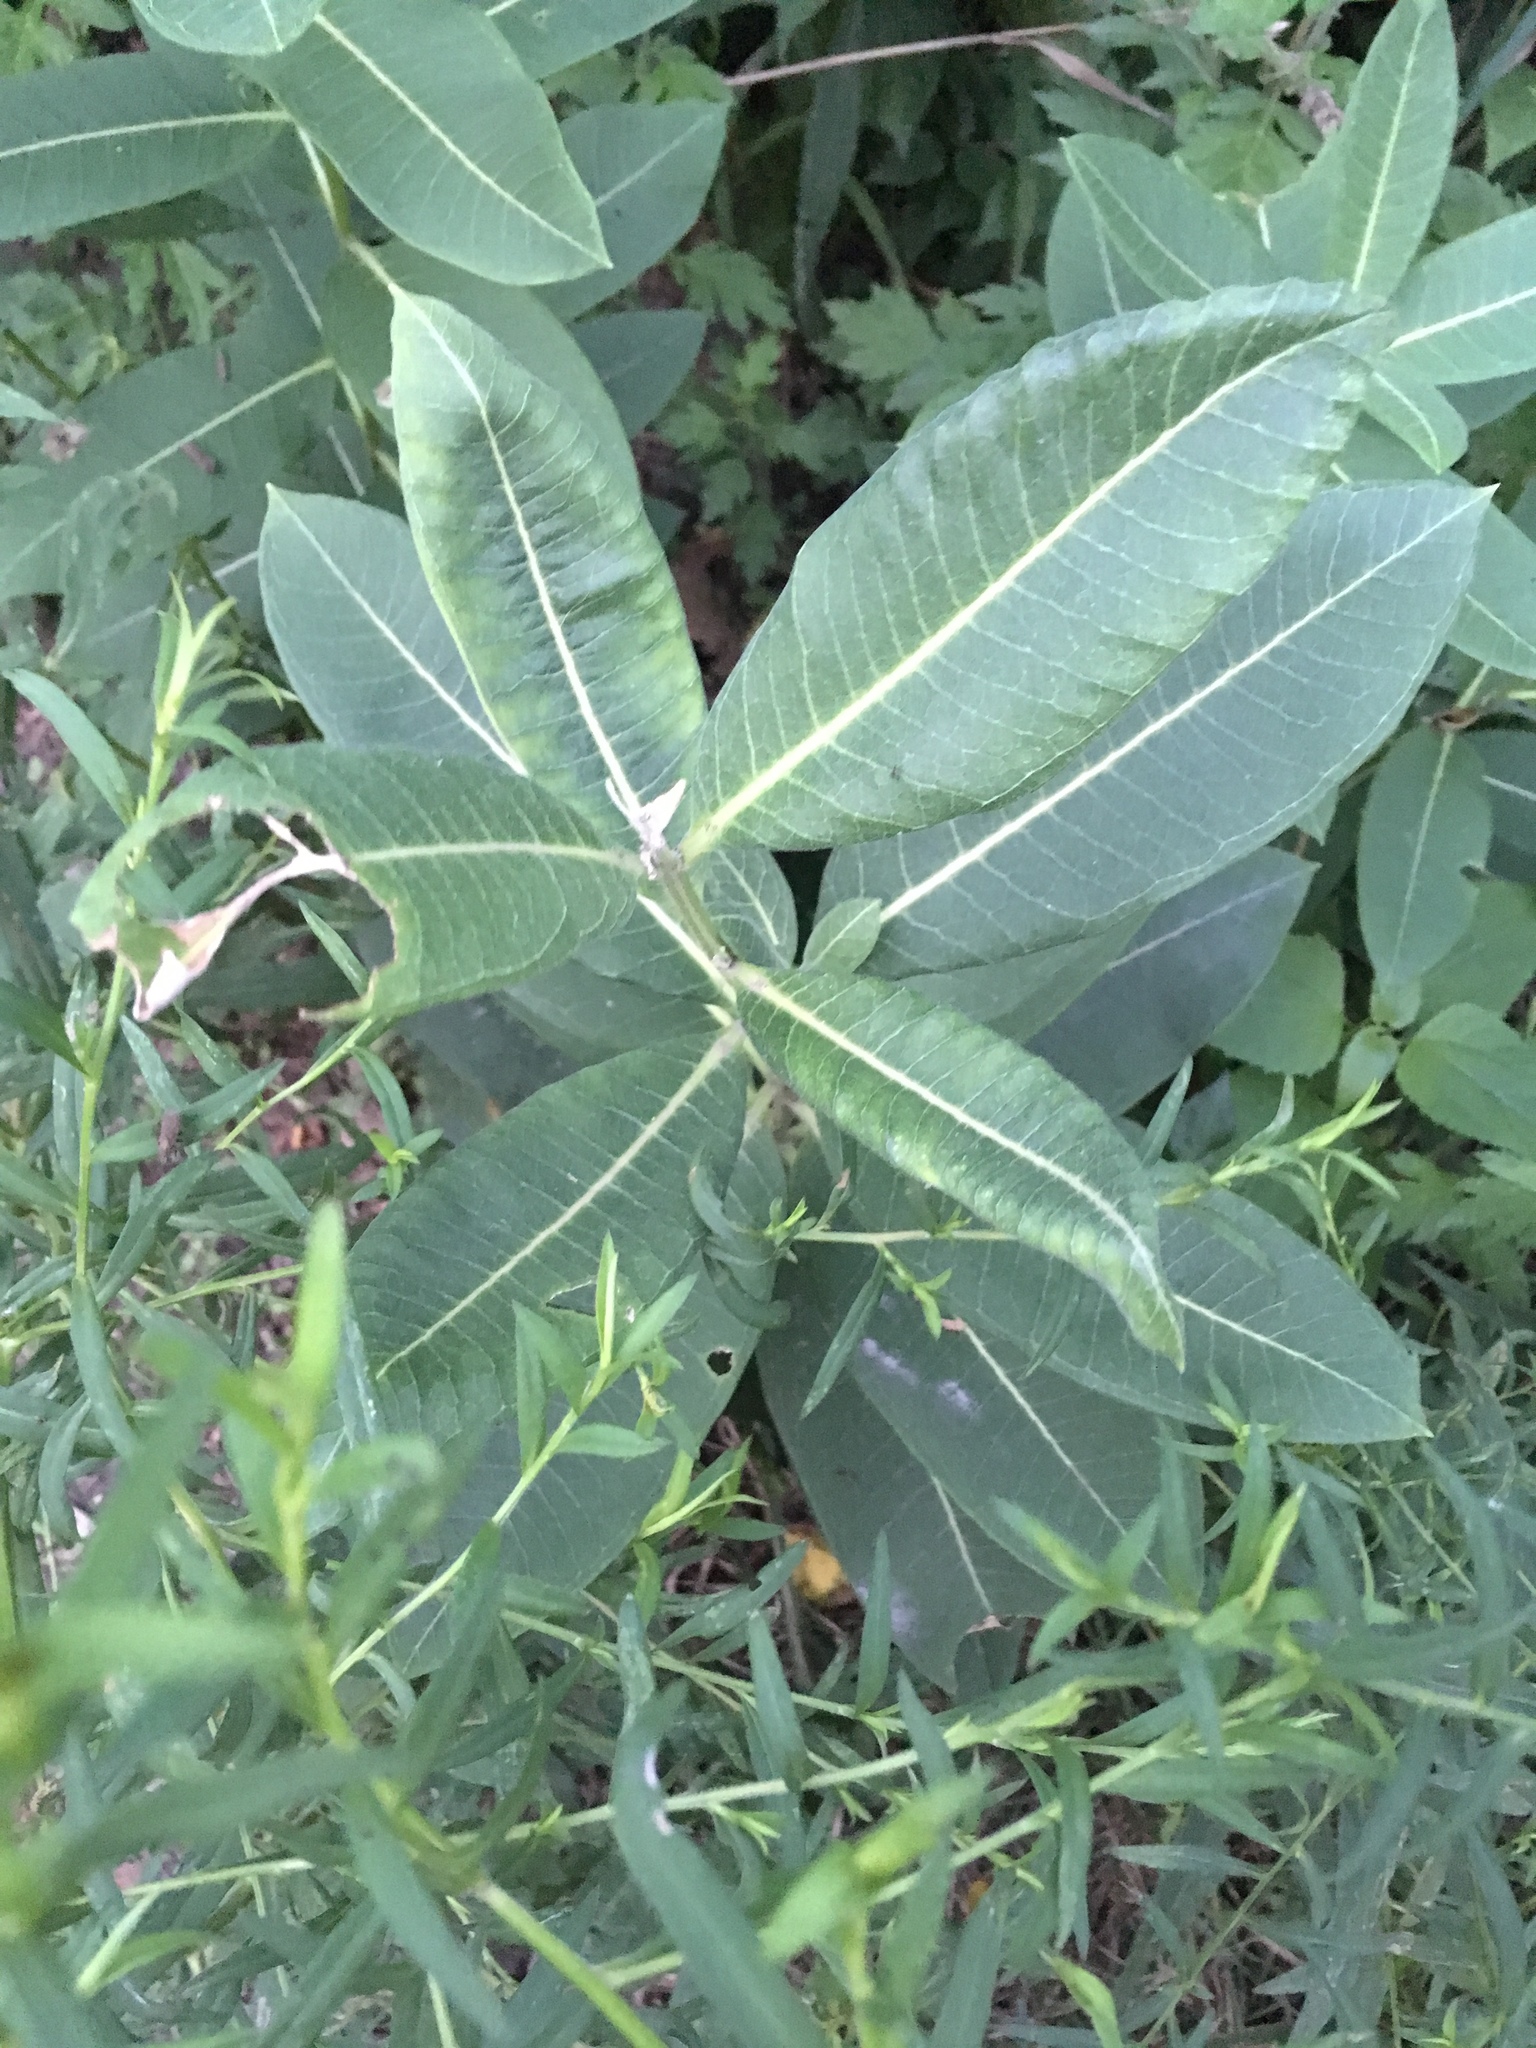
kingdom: Plantae
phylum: Tracheophyta
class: Magnoliopsida
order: Gentianales
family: Apocynaceae
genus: Asclepias
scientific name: Asclepias syriaca
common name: Common milkweed
